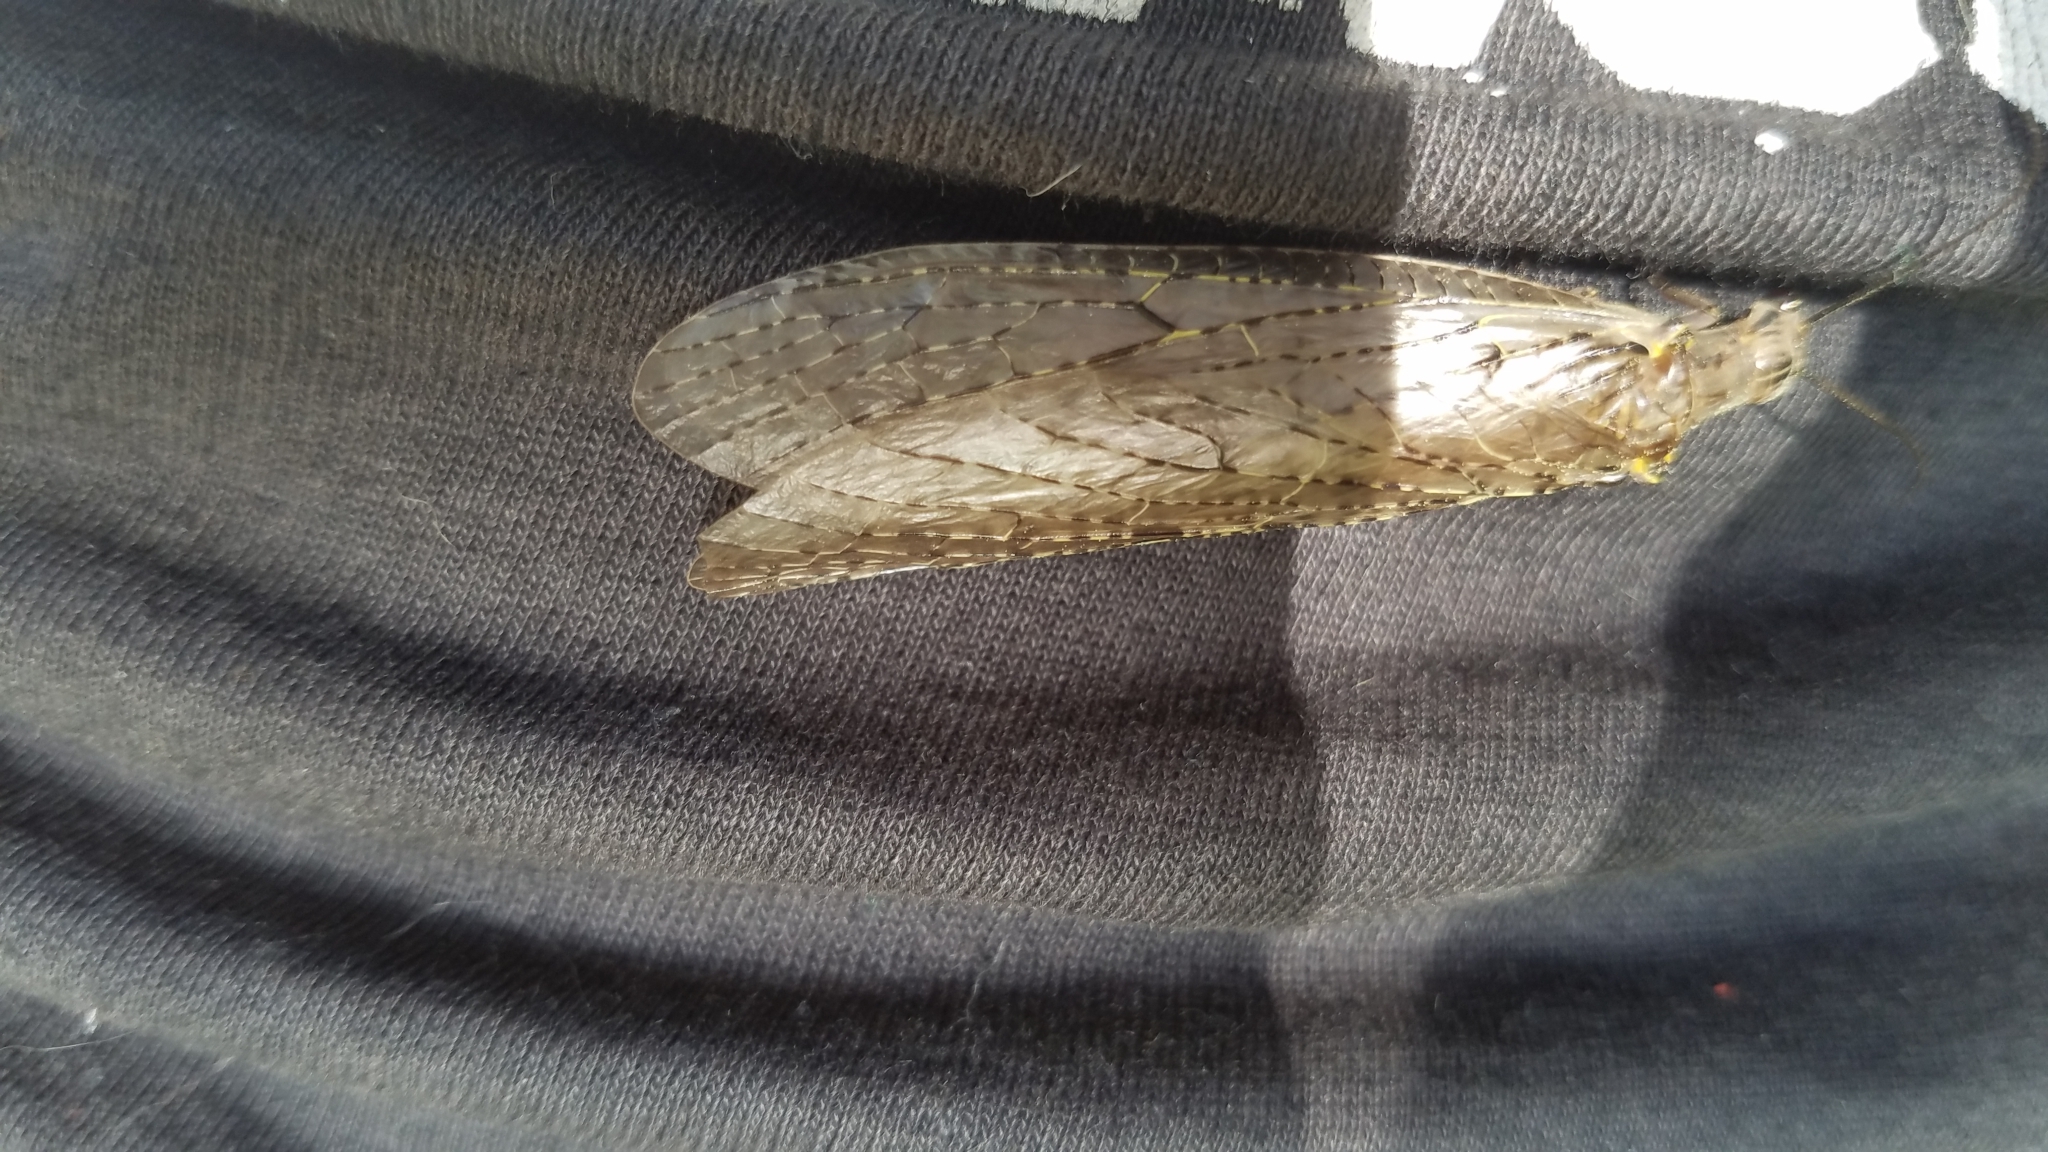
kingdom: Animalia
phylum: Arthropoda
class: Insecta
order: Megaloptera
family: Corydalidae
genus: Chauliodes
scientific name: Chauliodes rastricornis
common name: Spring fishfly
